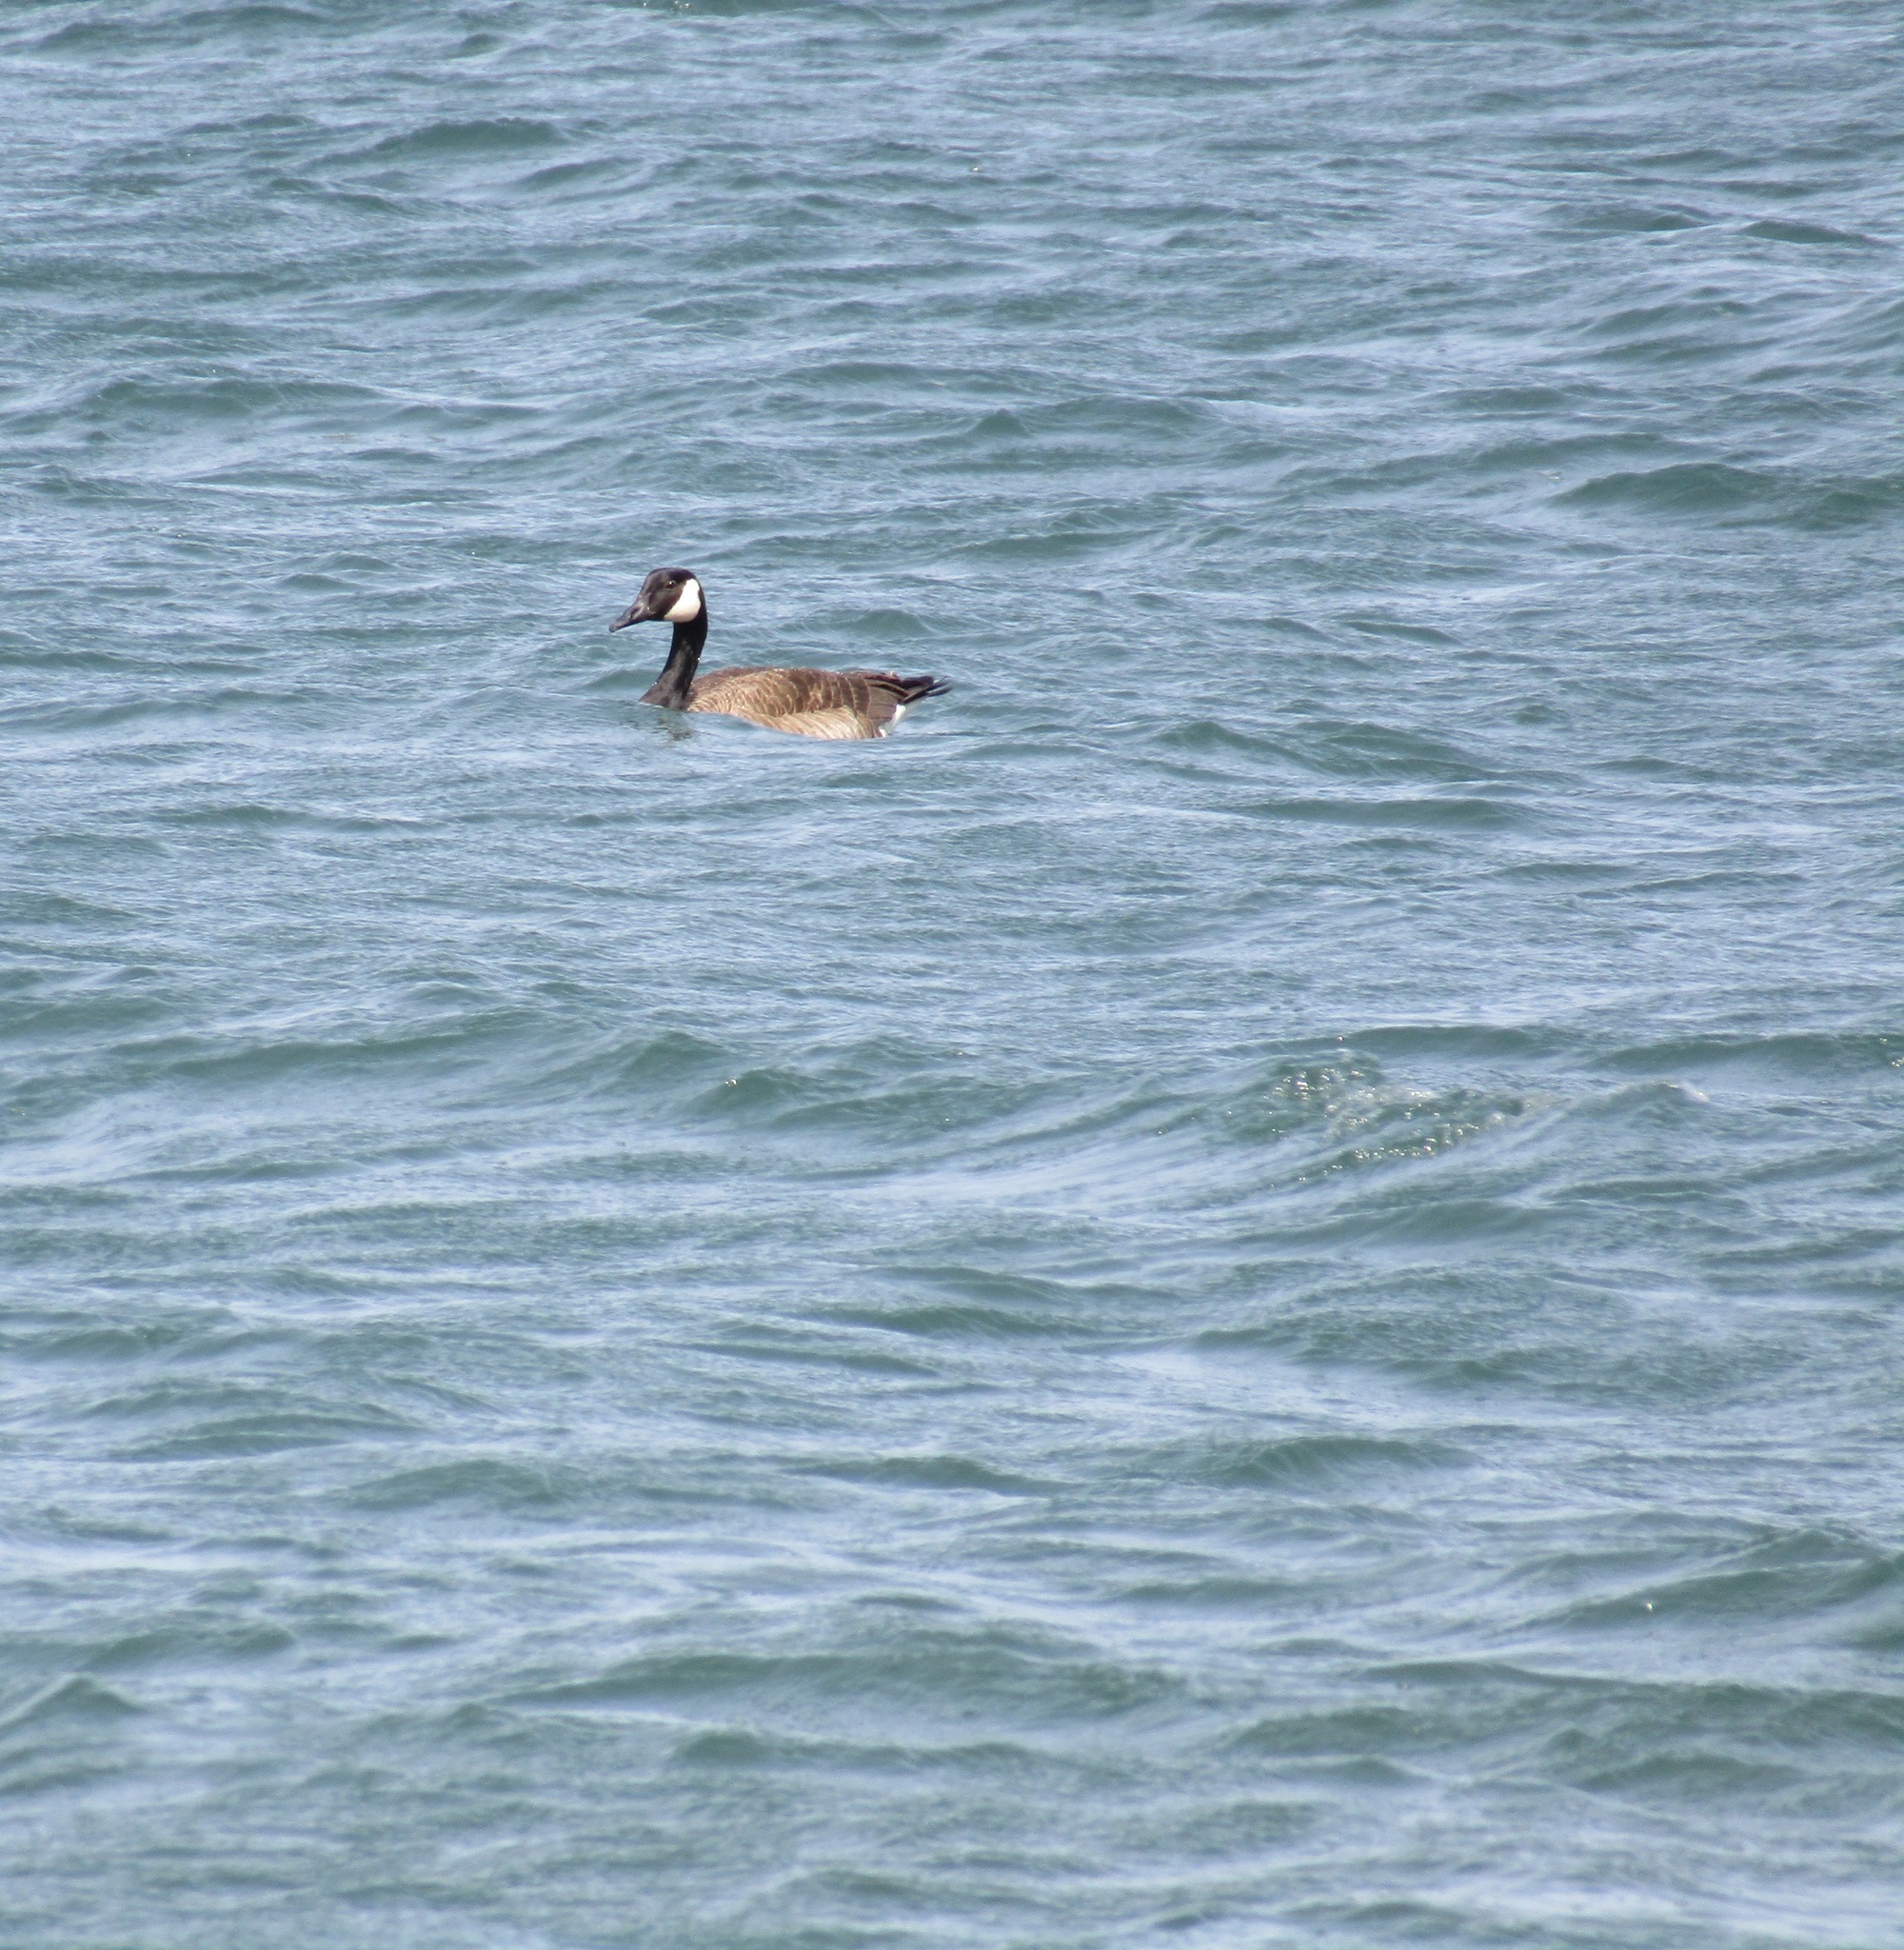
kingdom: Animalia
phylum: Chordata
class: Aves
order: Anseriformes
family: Anatidae
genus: Branta
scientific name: Branta canadensis
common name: Canada goose
